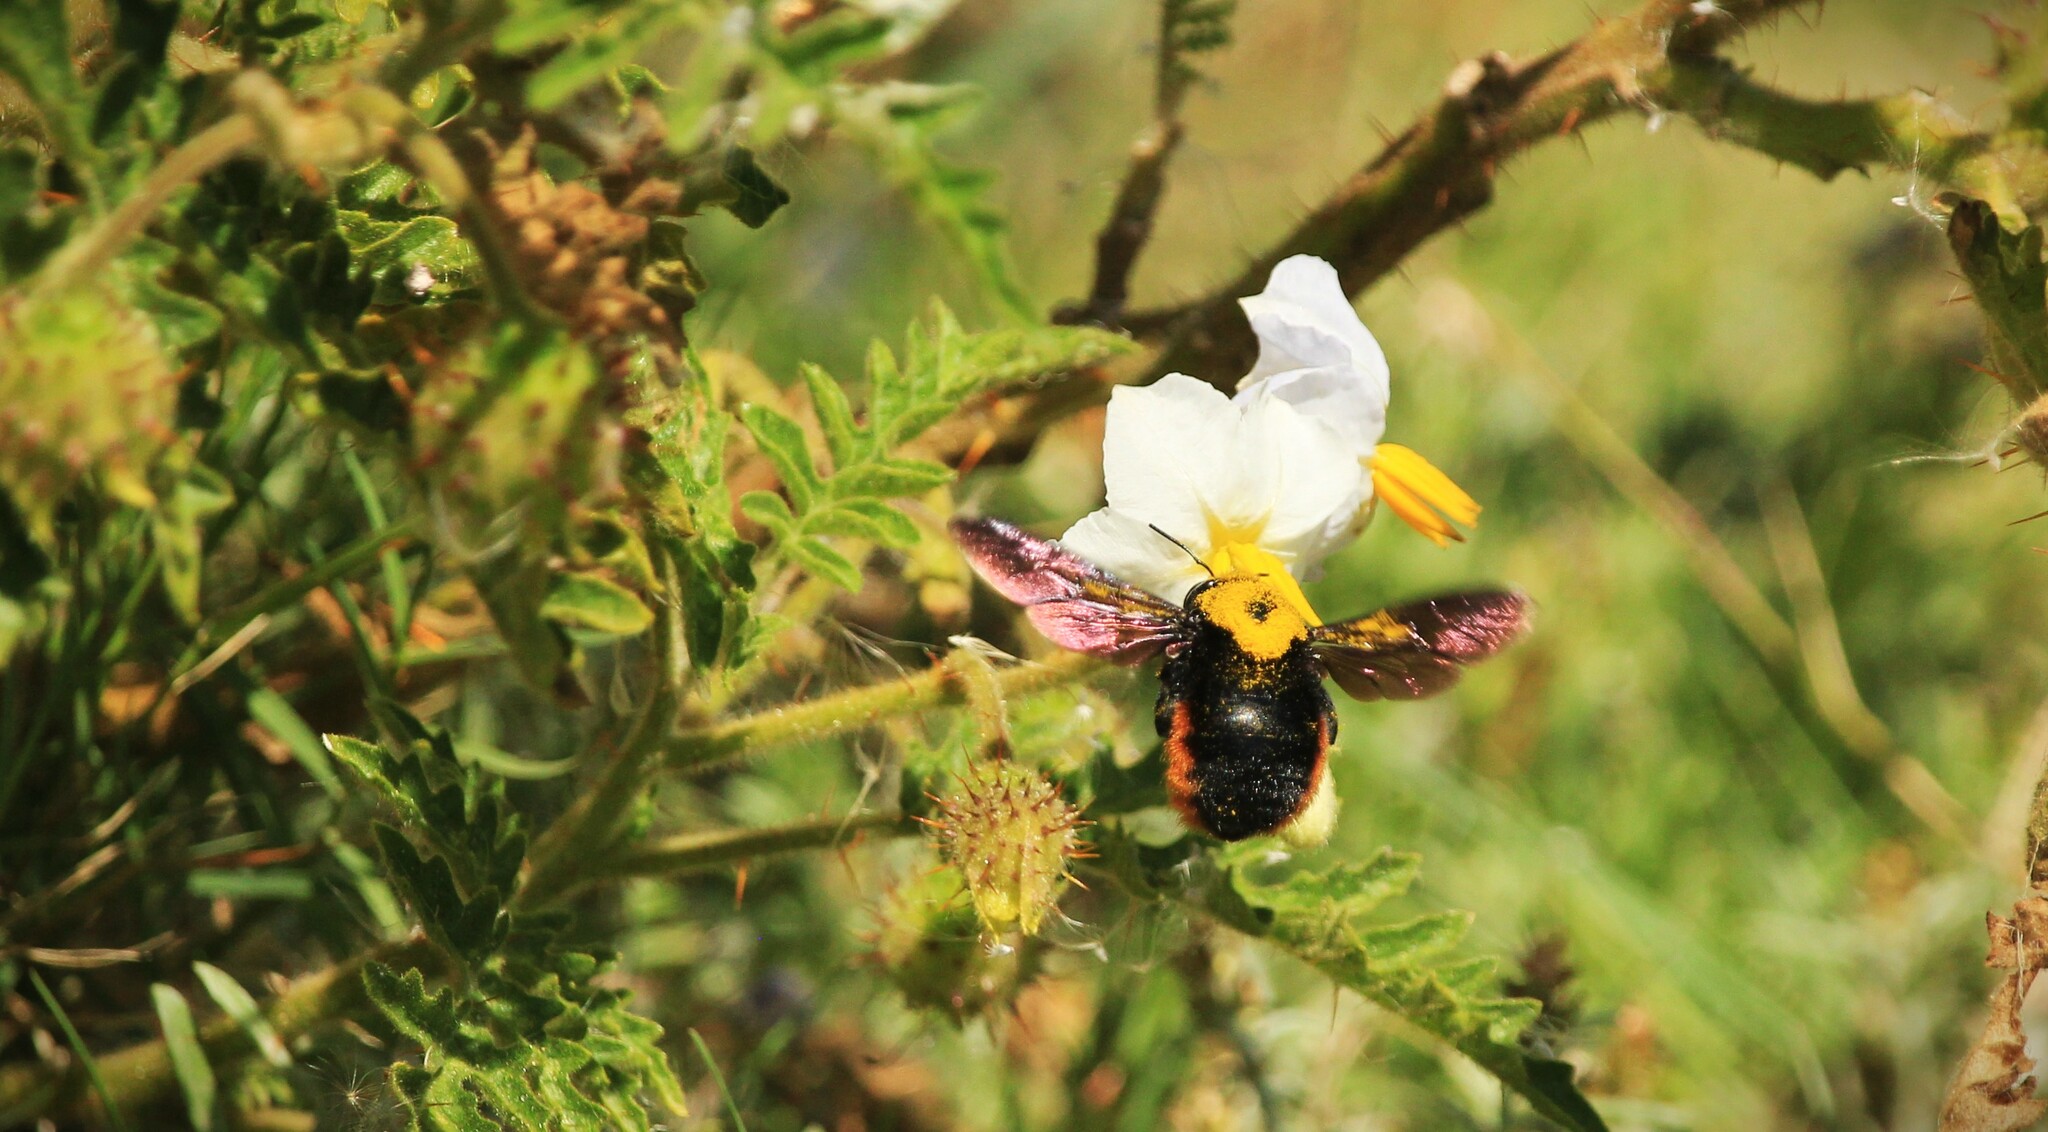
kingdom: Animalia
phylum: Arthropoda
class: Insecta
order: Hymenoptera
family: Apidae
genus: Xylocopa
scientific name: Xylocopa augusti
